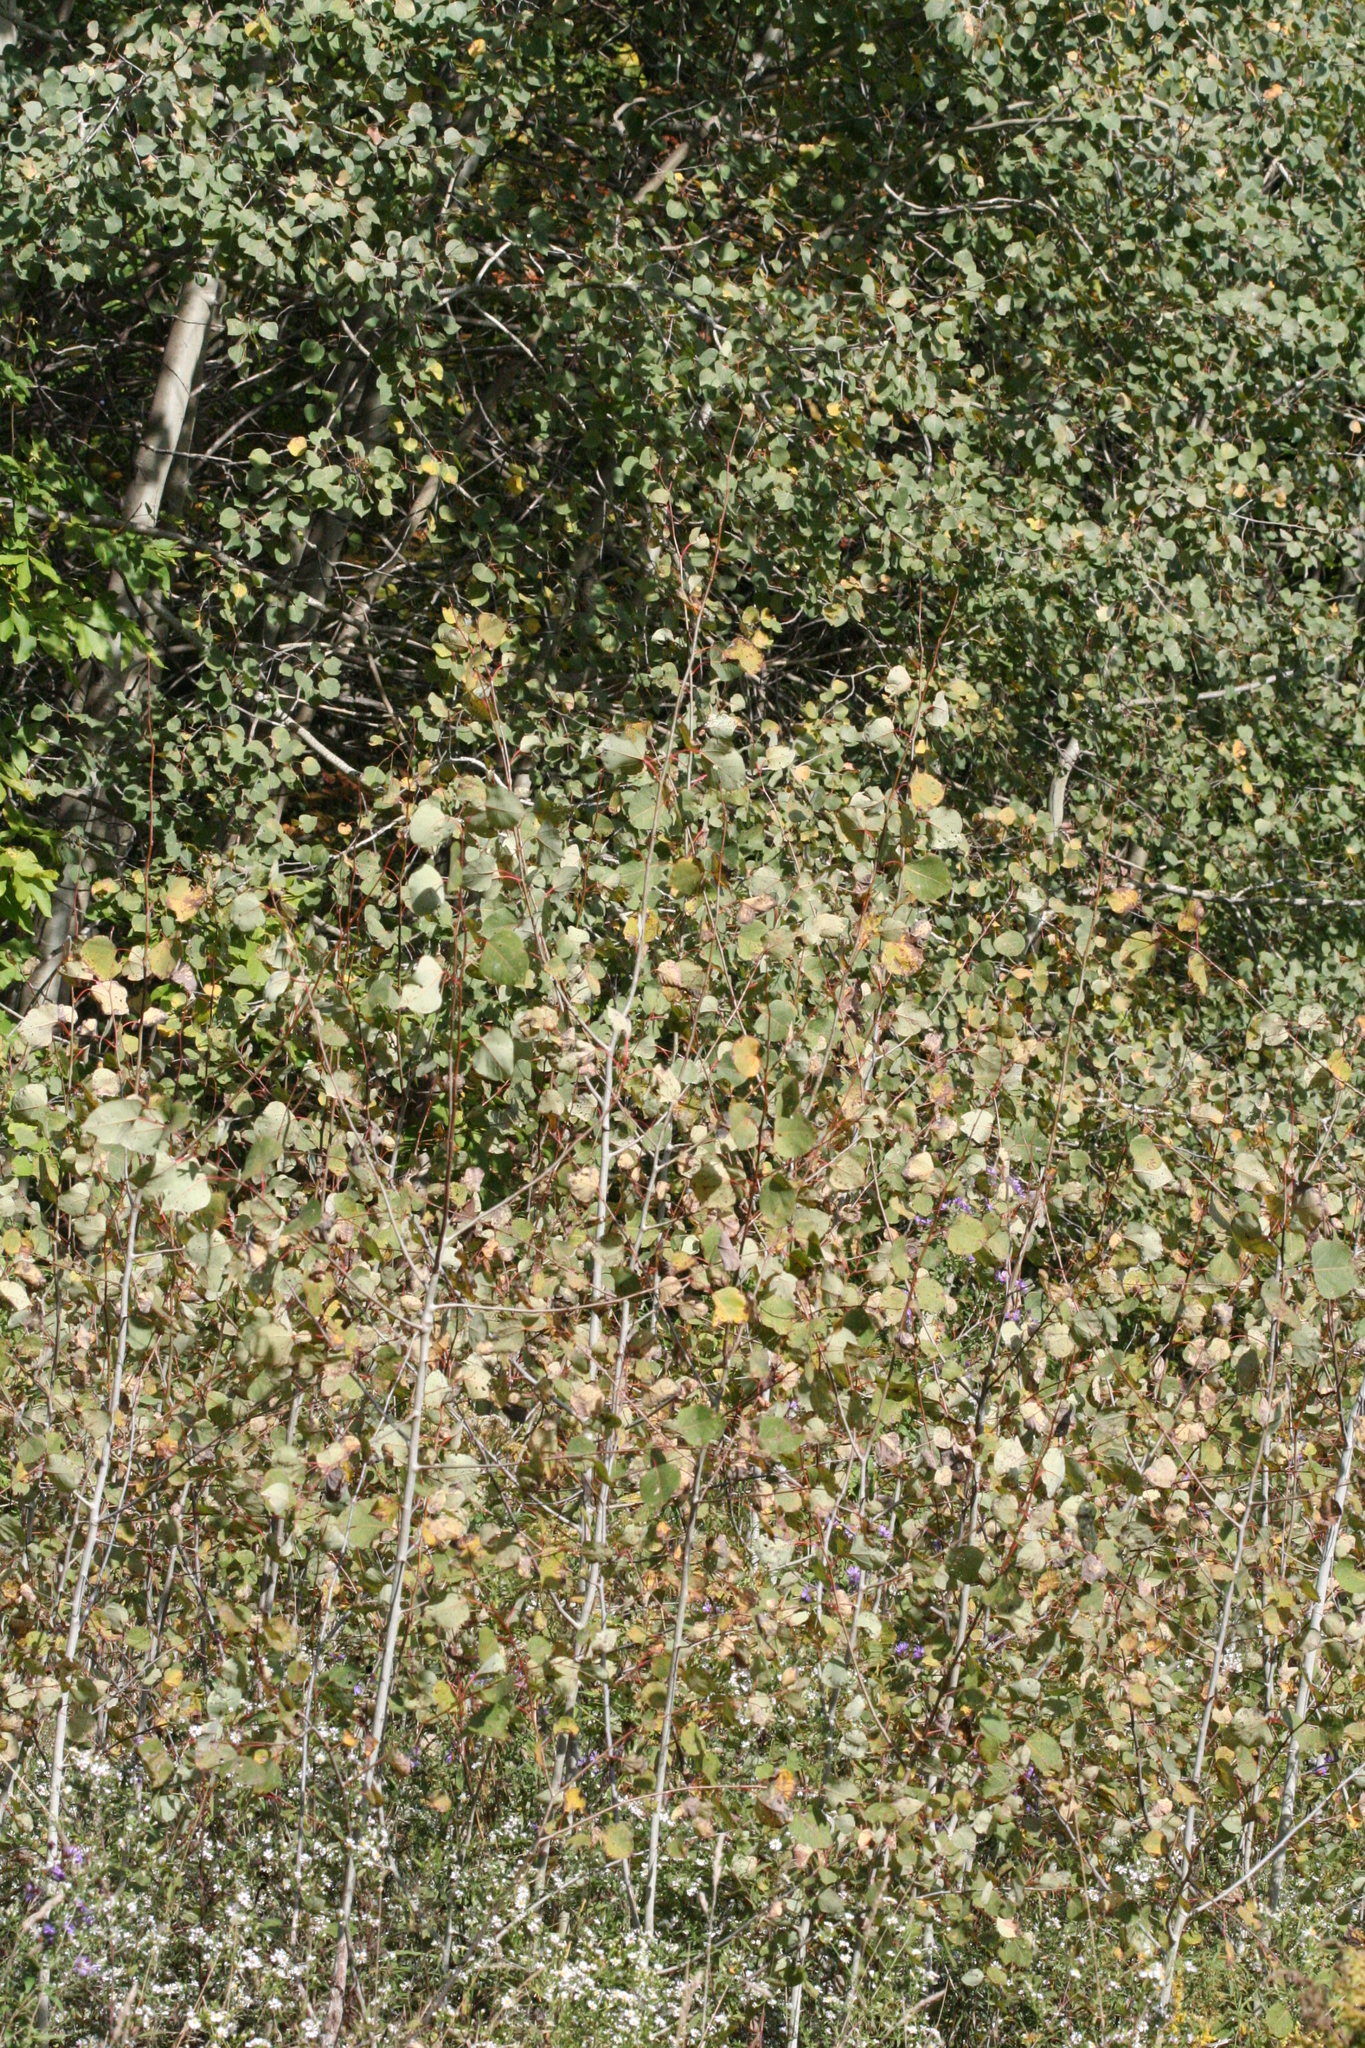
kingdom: Plantae
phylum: Tracheophyta
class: Magnoliopsida
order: Malpighiales
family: Salicaceae
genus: Populus
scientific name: Populus tremuloides
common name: Quaking aspen
